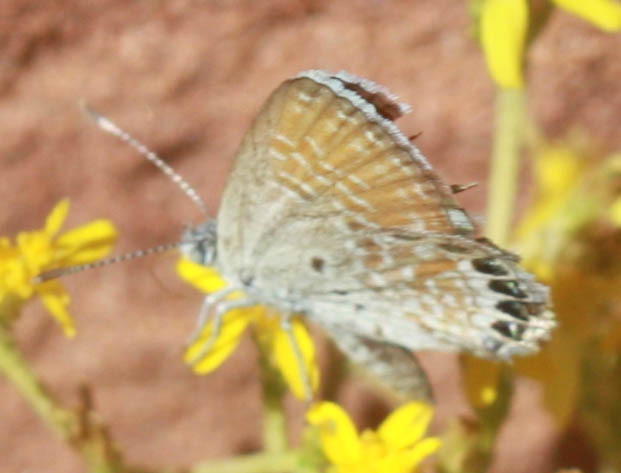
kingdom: Animalia
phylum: Arthropoda
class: Insecta
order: Lepidoptera
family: Lycaenidae
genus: Brephidium
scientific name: Brephidium exilis
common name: Pygmy blue
